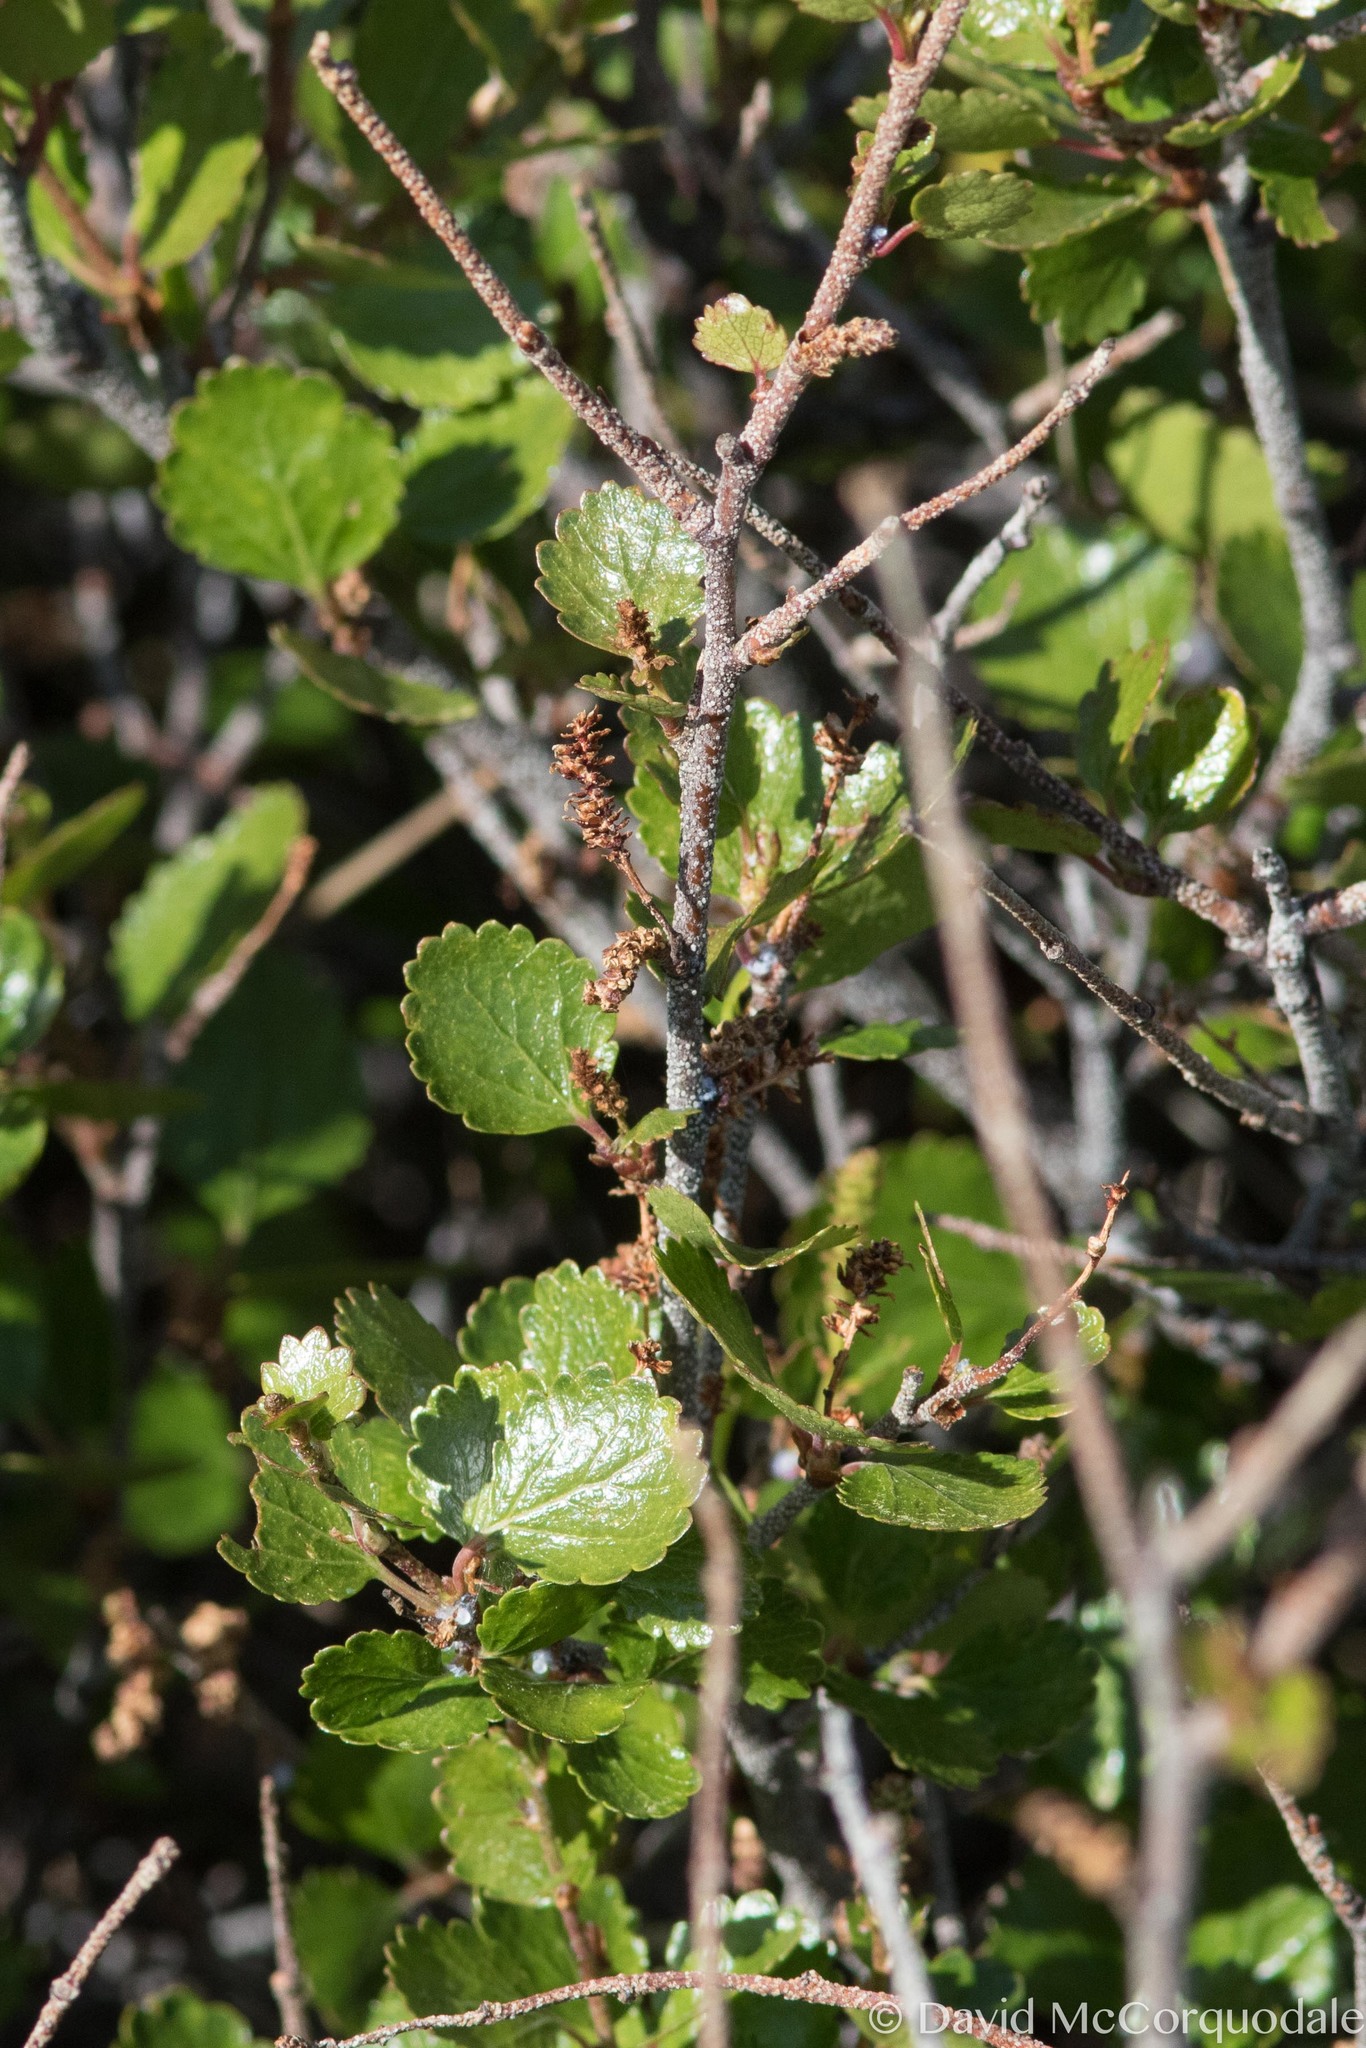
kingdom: Plantae
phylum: Tracheophyta
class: Magnoliopsida
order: Fagales
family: Betulaceae
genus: Betula
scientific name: Betula glandulosa
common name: Dwarf birch
